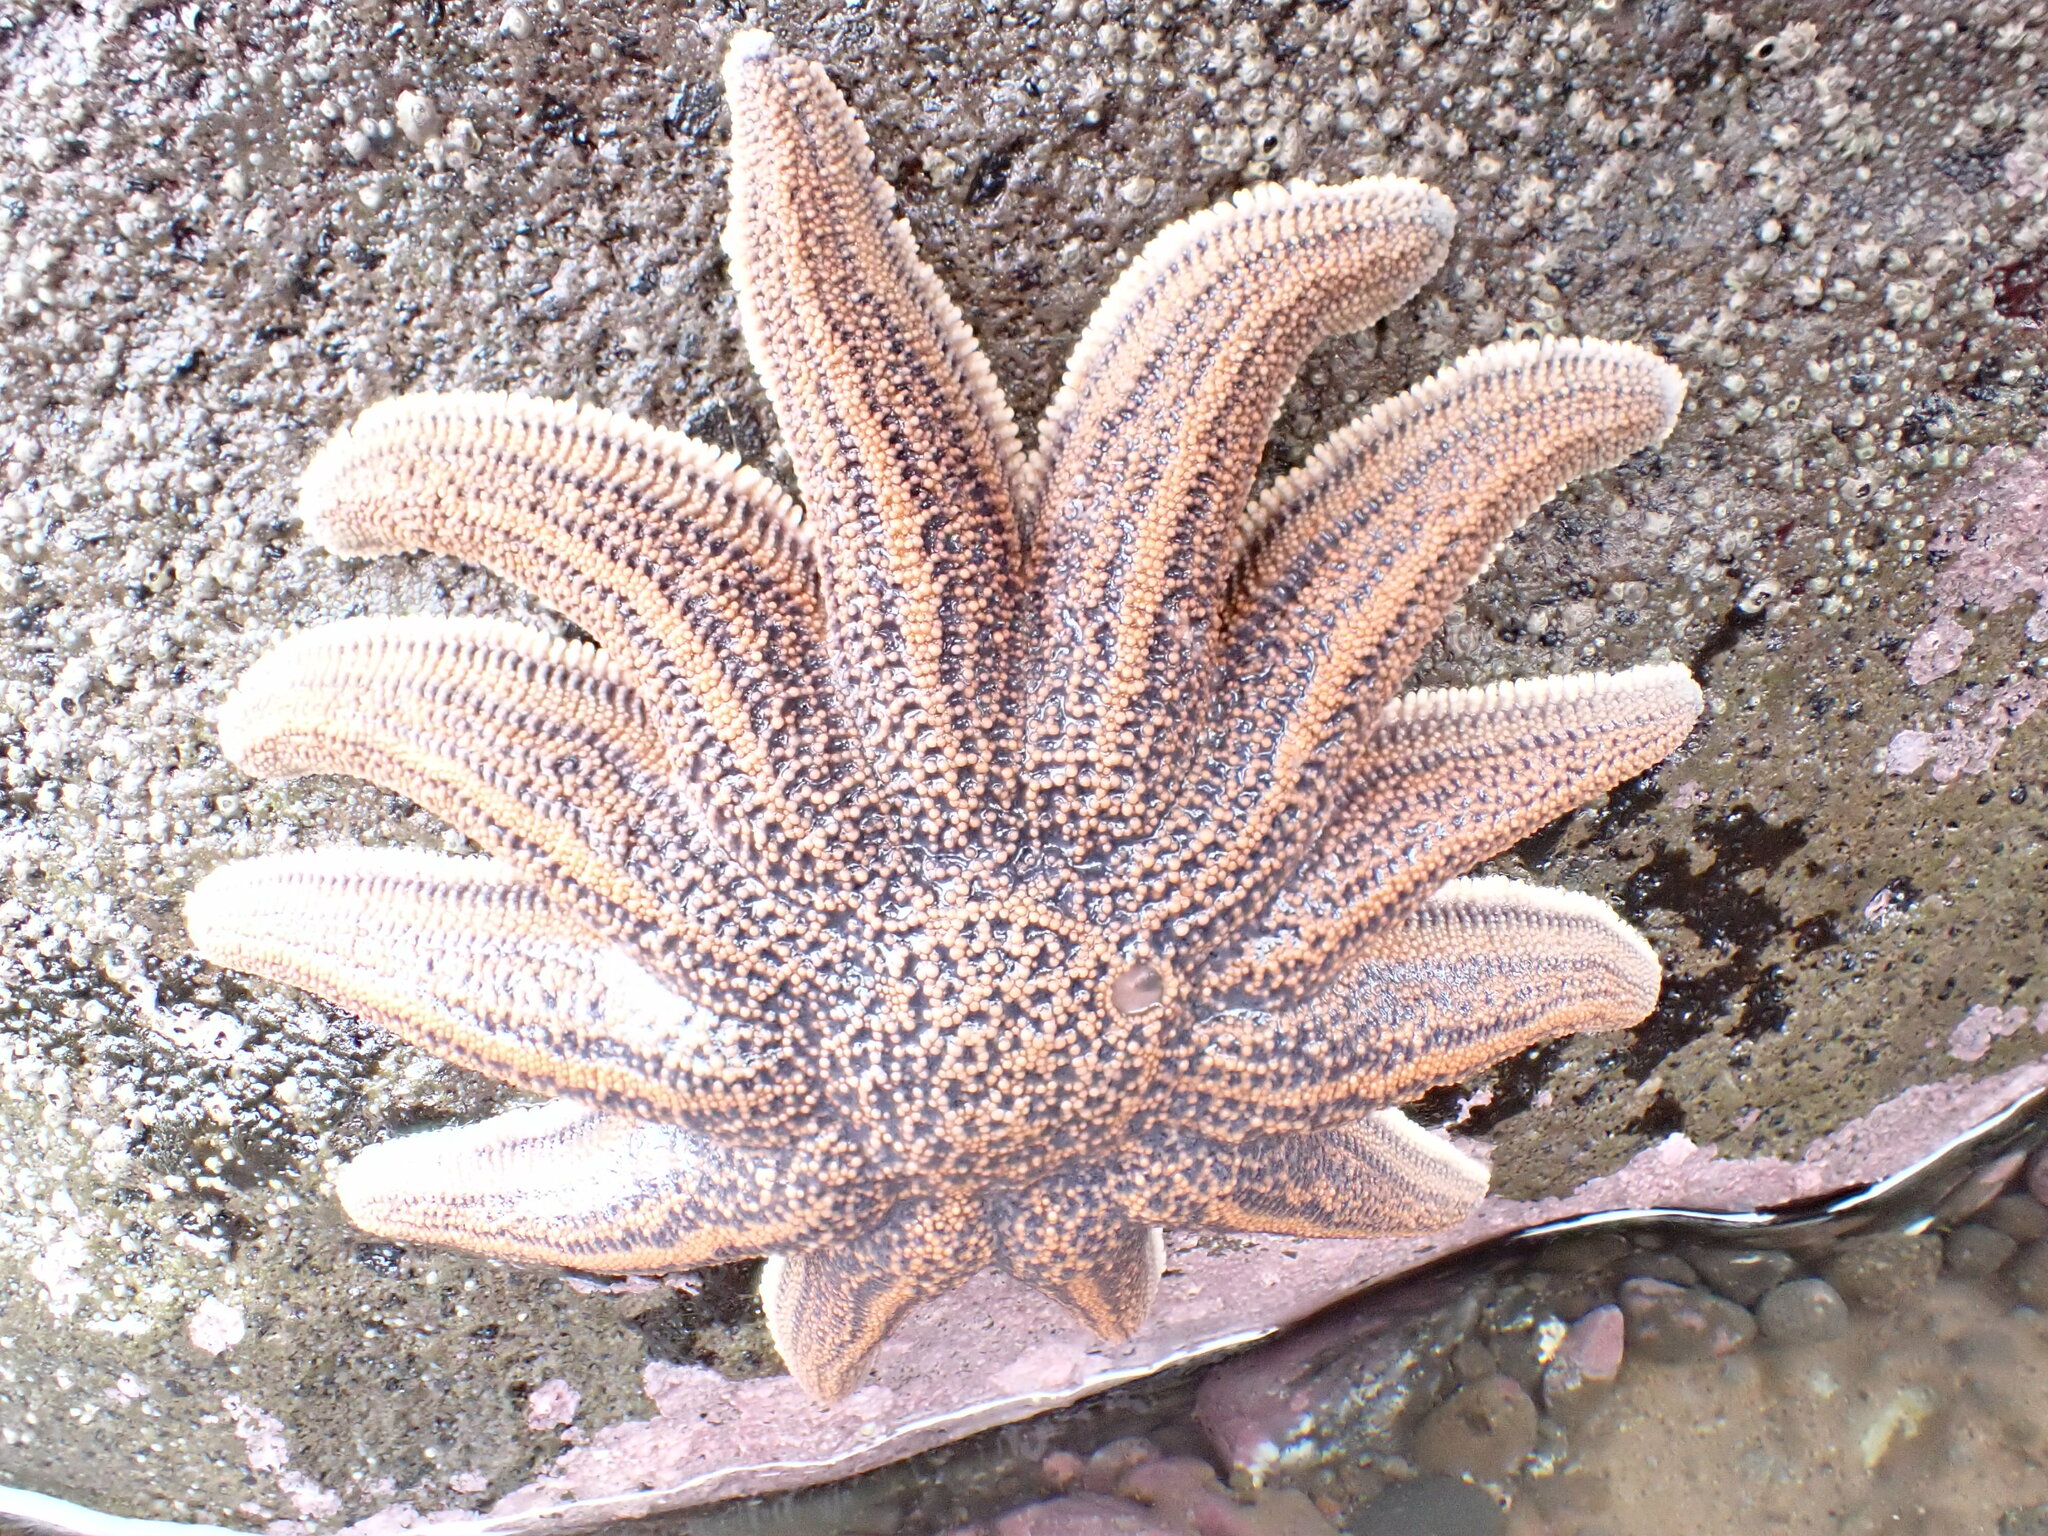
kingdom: Animalia
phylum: Echinodermata
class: Asteroidea
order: Forcipulatida
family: Stichasteridae
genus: Stichaster
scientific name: Stichaster australis
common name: Reef starfish
